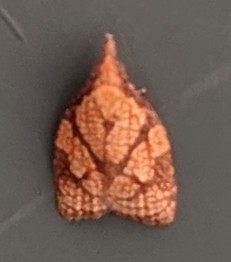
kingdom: Animalia
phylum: Arthropoda
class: Insecta
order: Lepidoptera
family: Tortricidae
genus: Cenopis
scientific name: Cenopis reticulatana
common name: Reticulated fruitworm moth
